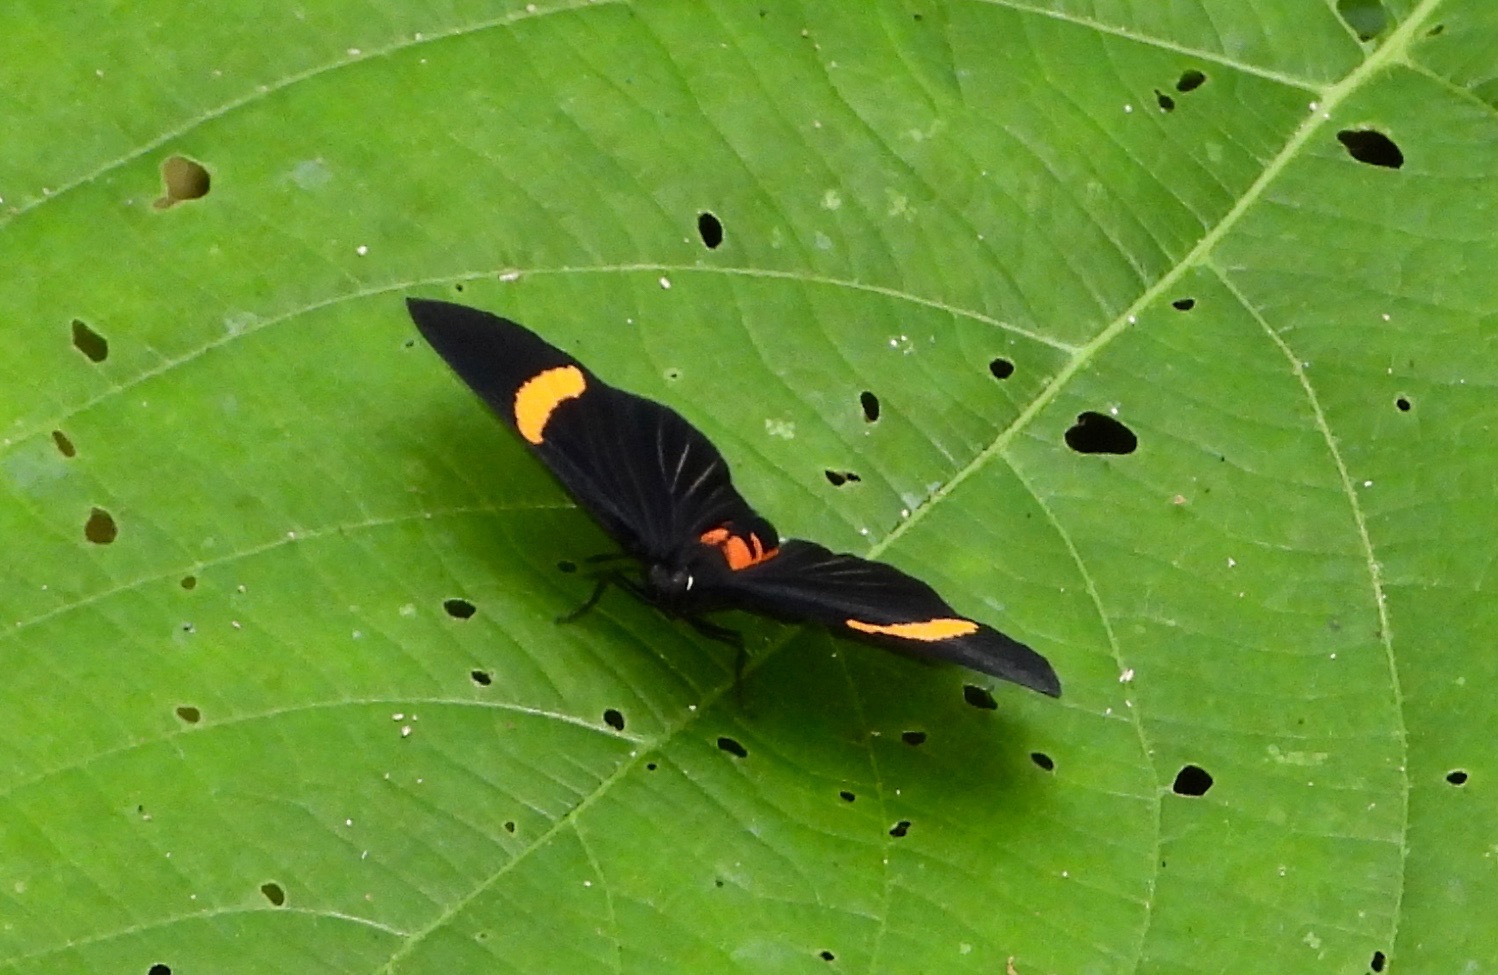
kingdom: Animalia
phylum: Arthropoda
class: Insecta
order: Lepidoptera
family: Lycaenidae
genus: Melanis
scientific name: Melanis
